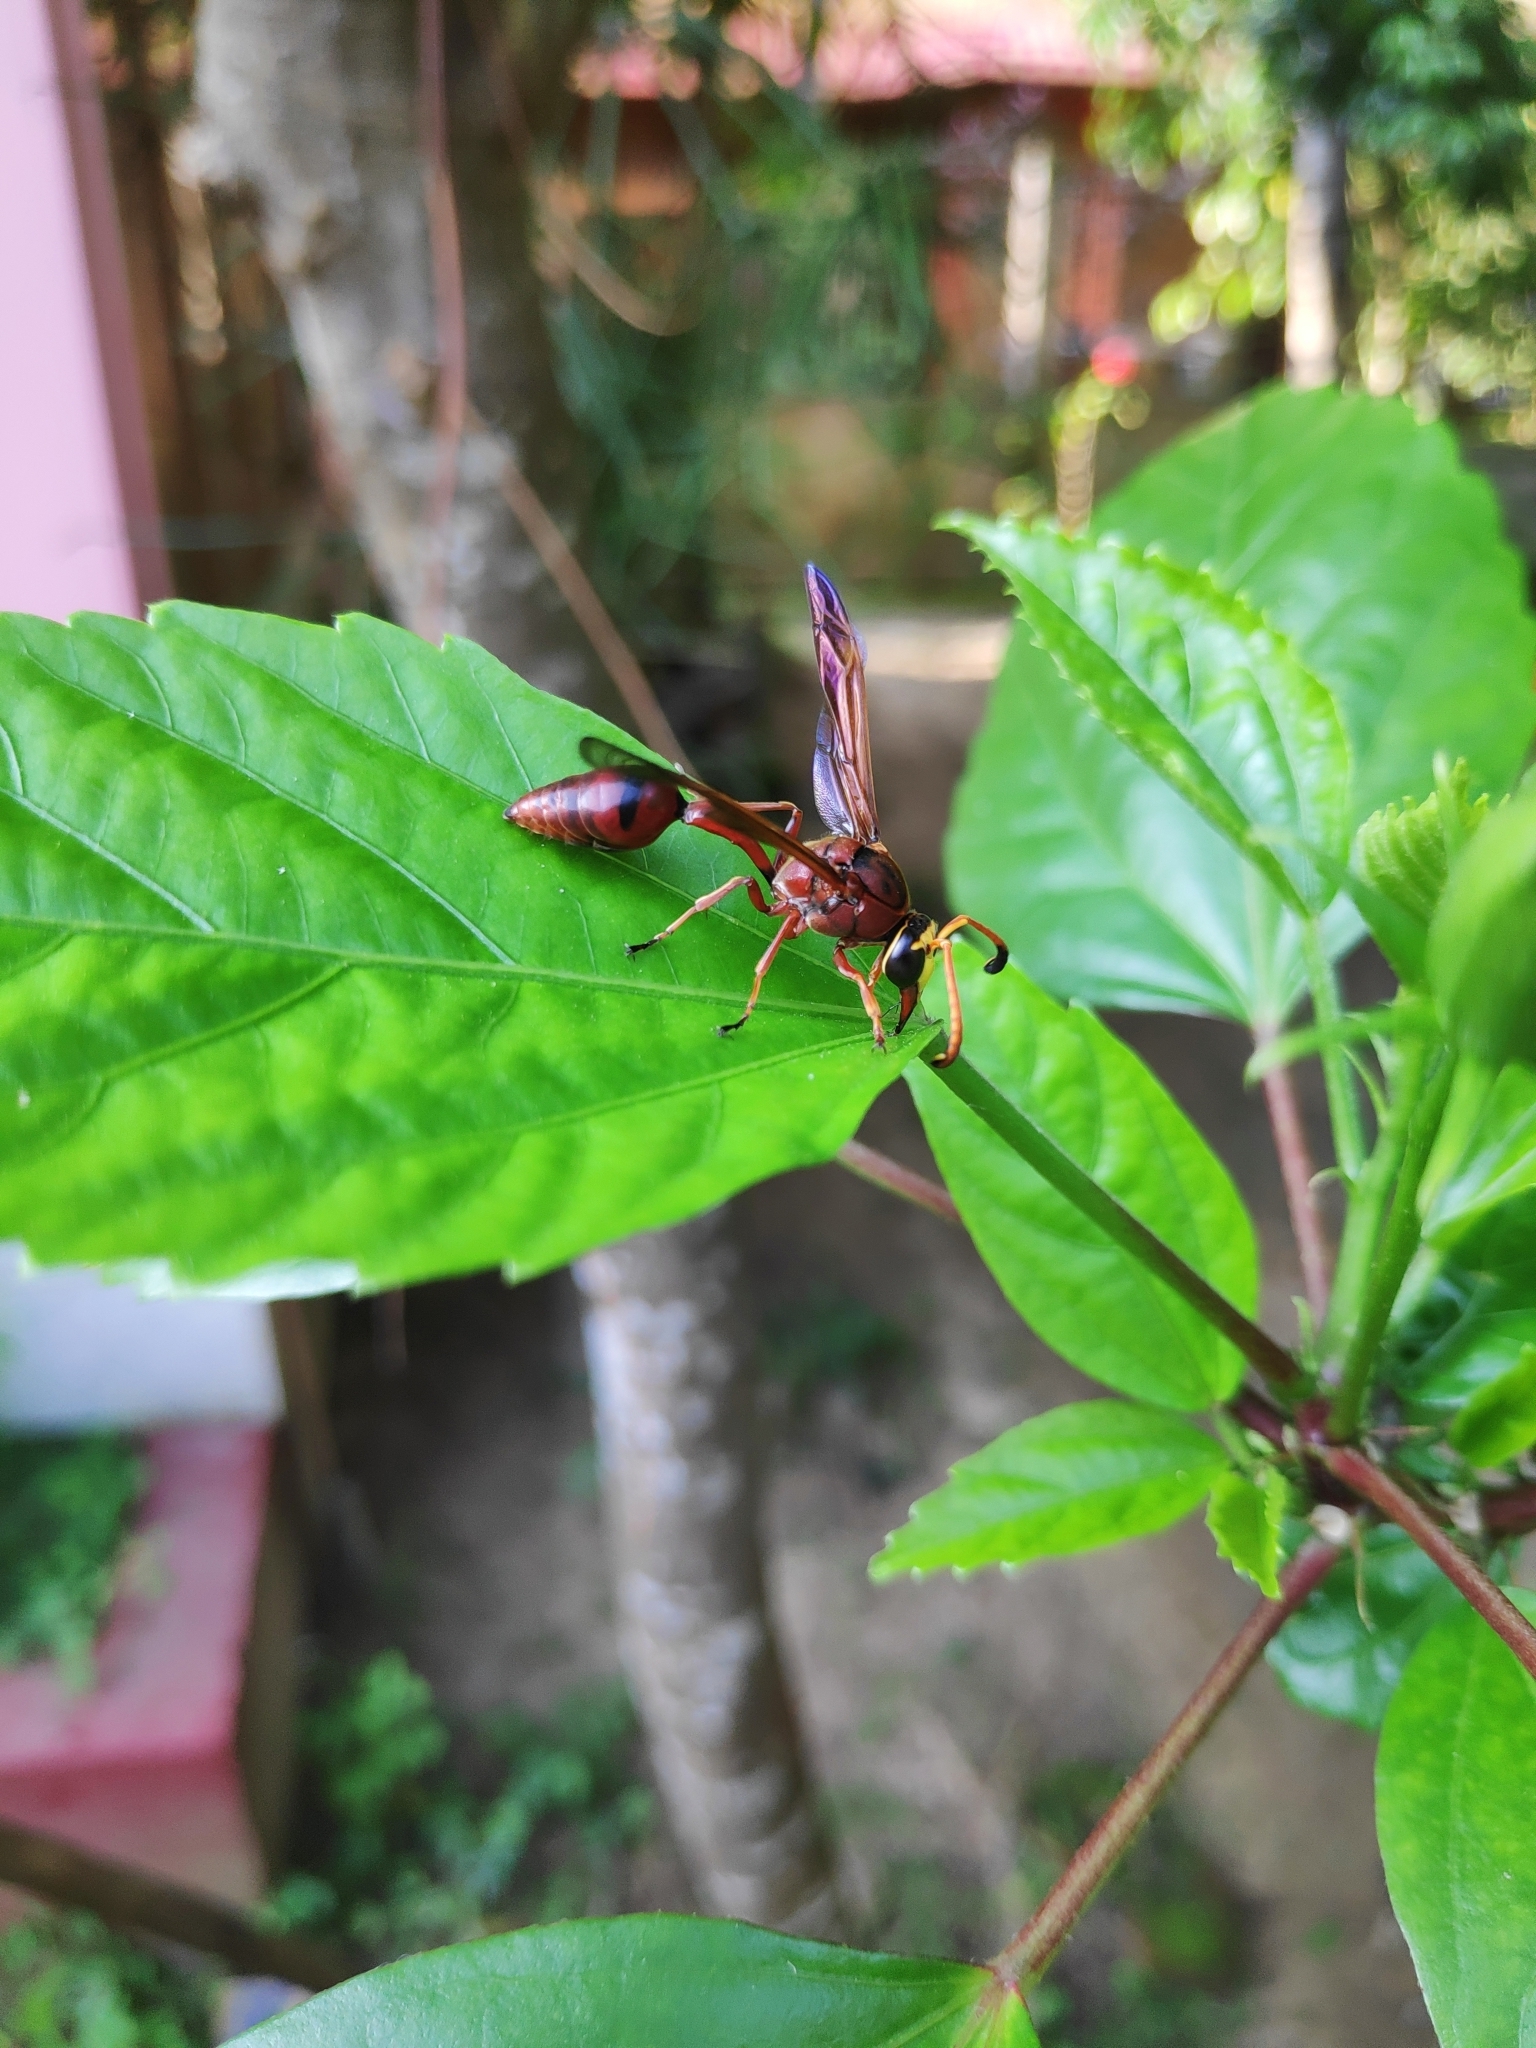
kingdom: Animalia
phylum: Arthropoda
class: Insecta
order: Hymenoptera
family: Eumenidae
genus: Delta
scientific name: Delta conoideum
